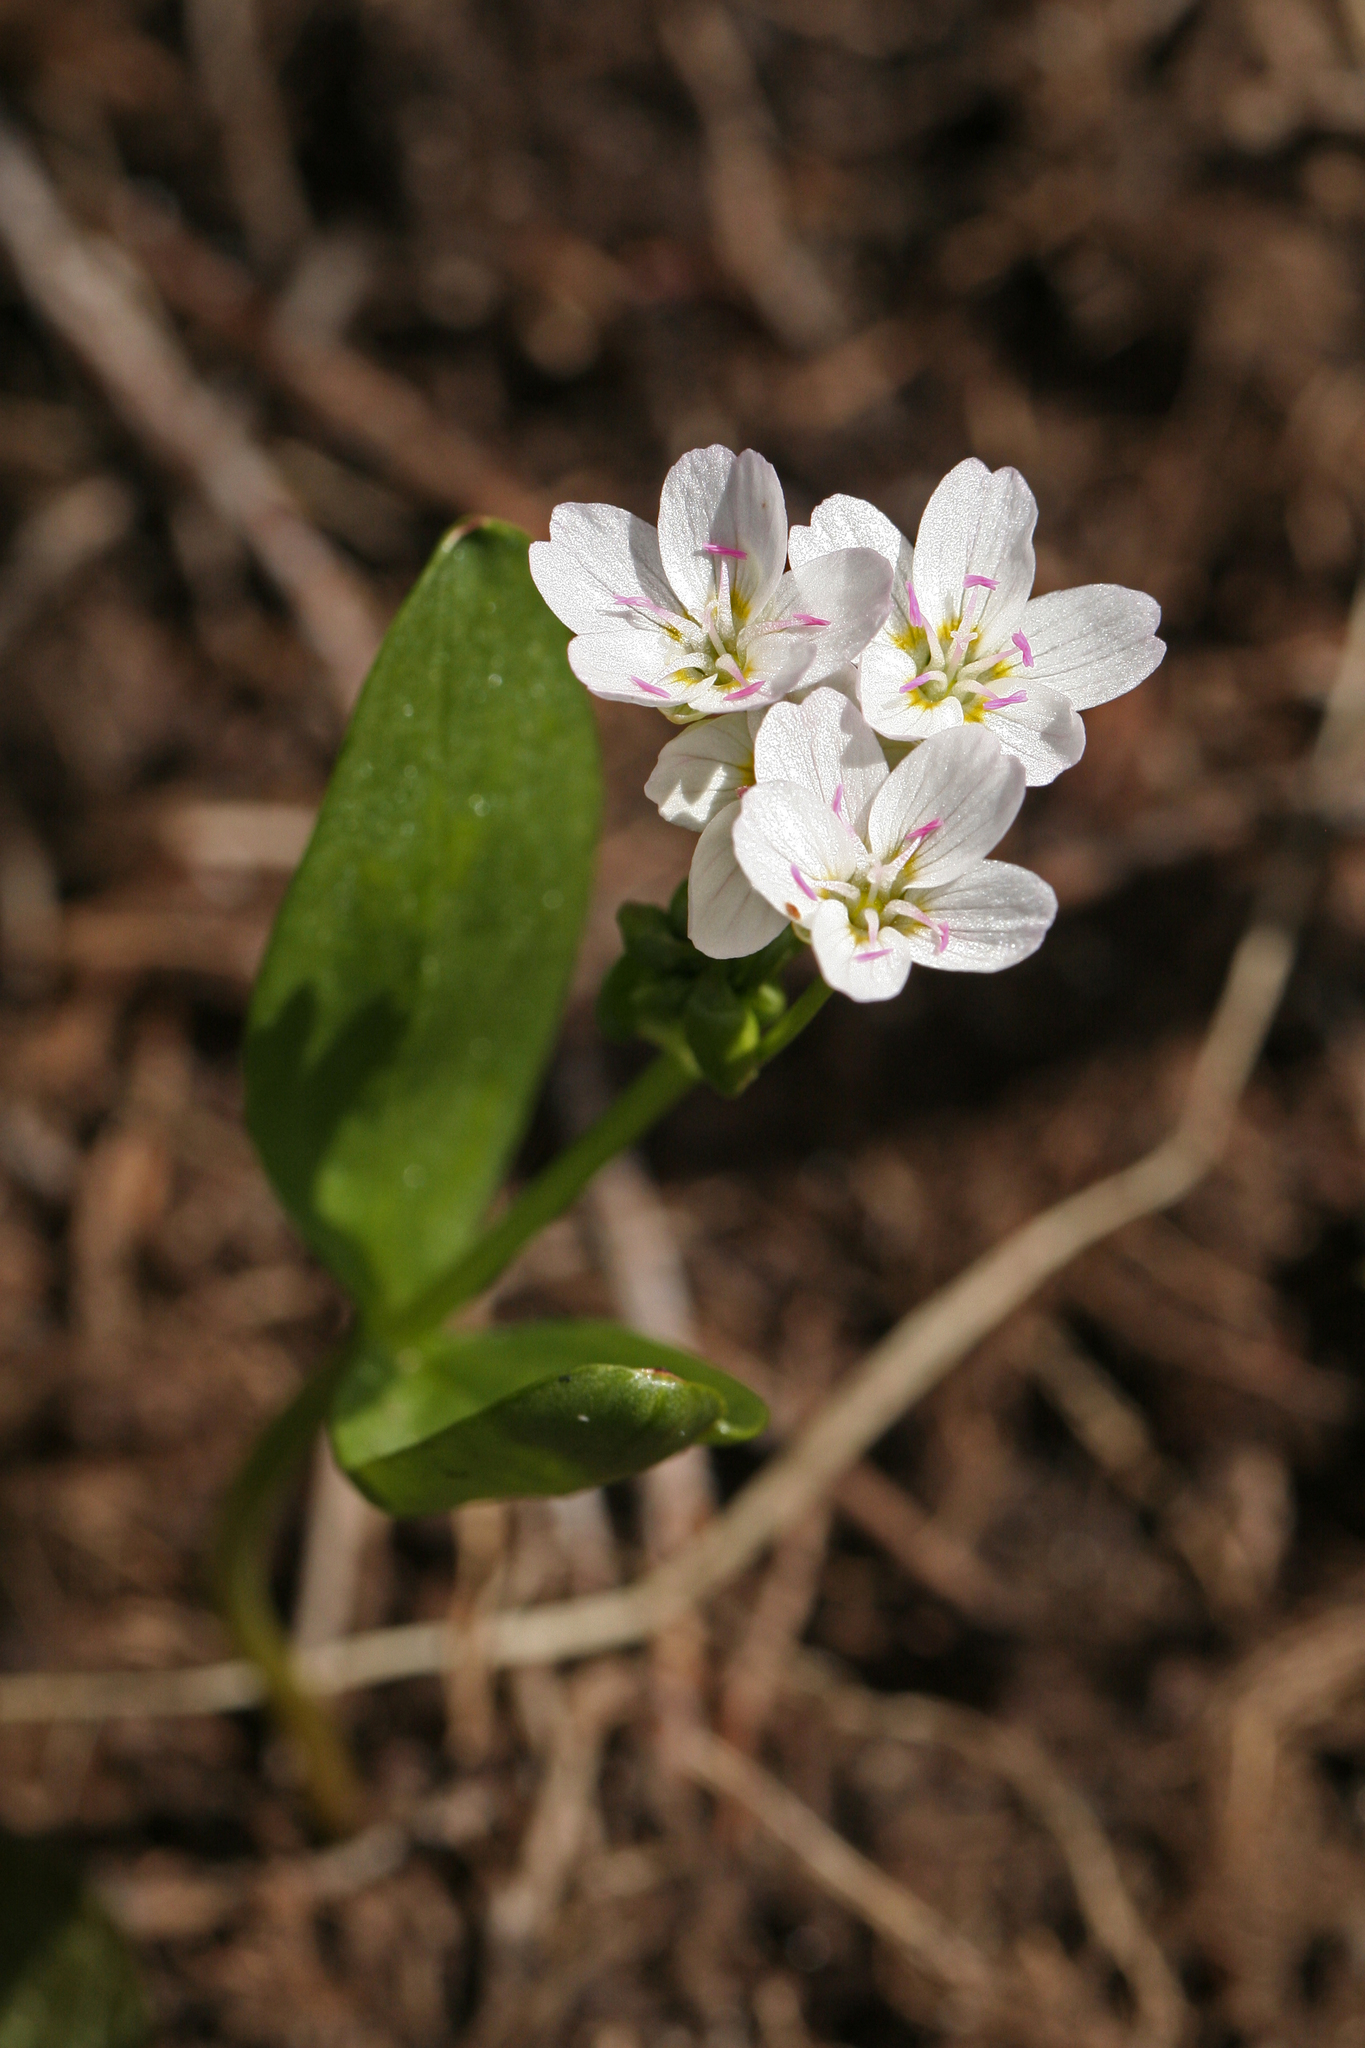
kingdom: Plantae
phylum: Tracheophyta
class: Magnoliopsida
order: Caryophyllales
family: Montiaceae
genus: Claytonia
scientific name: Claytonia lanceolata
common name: Western spring-beauty
